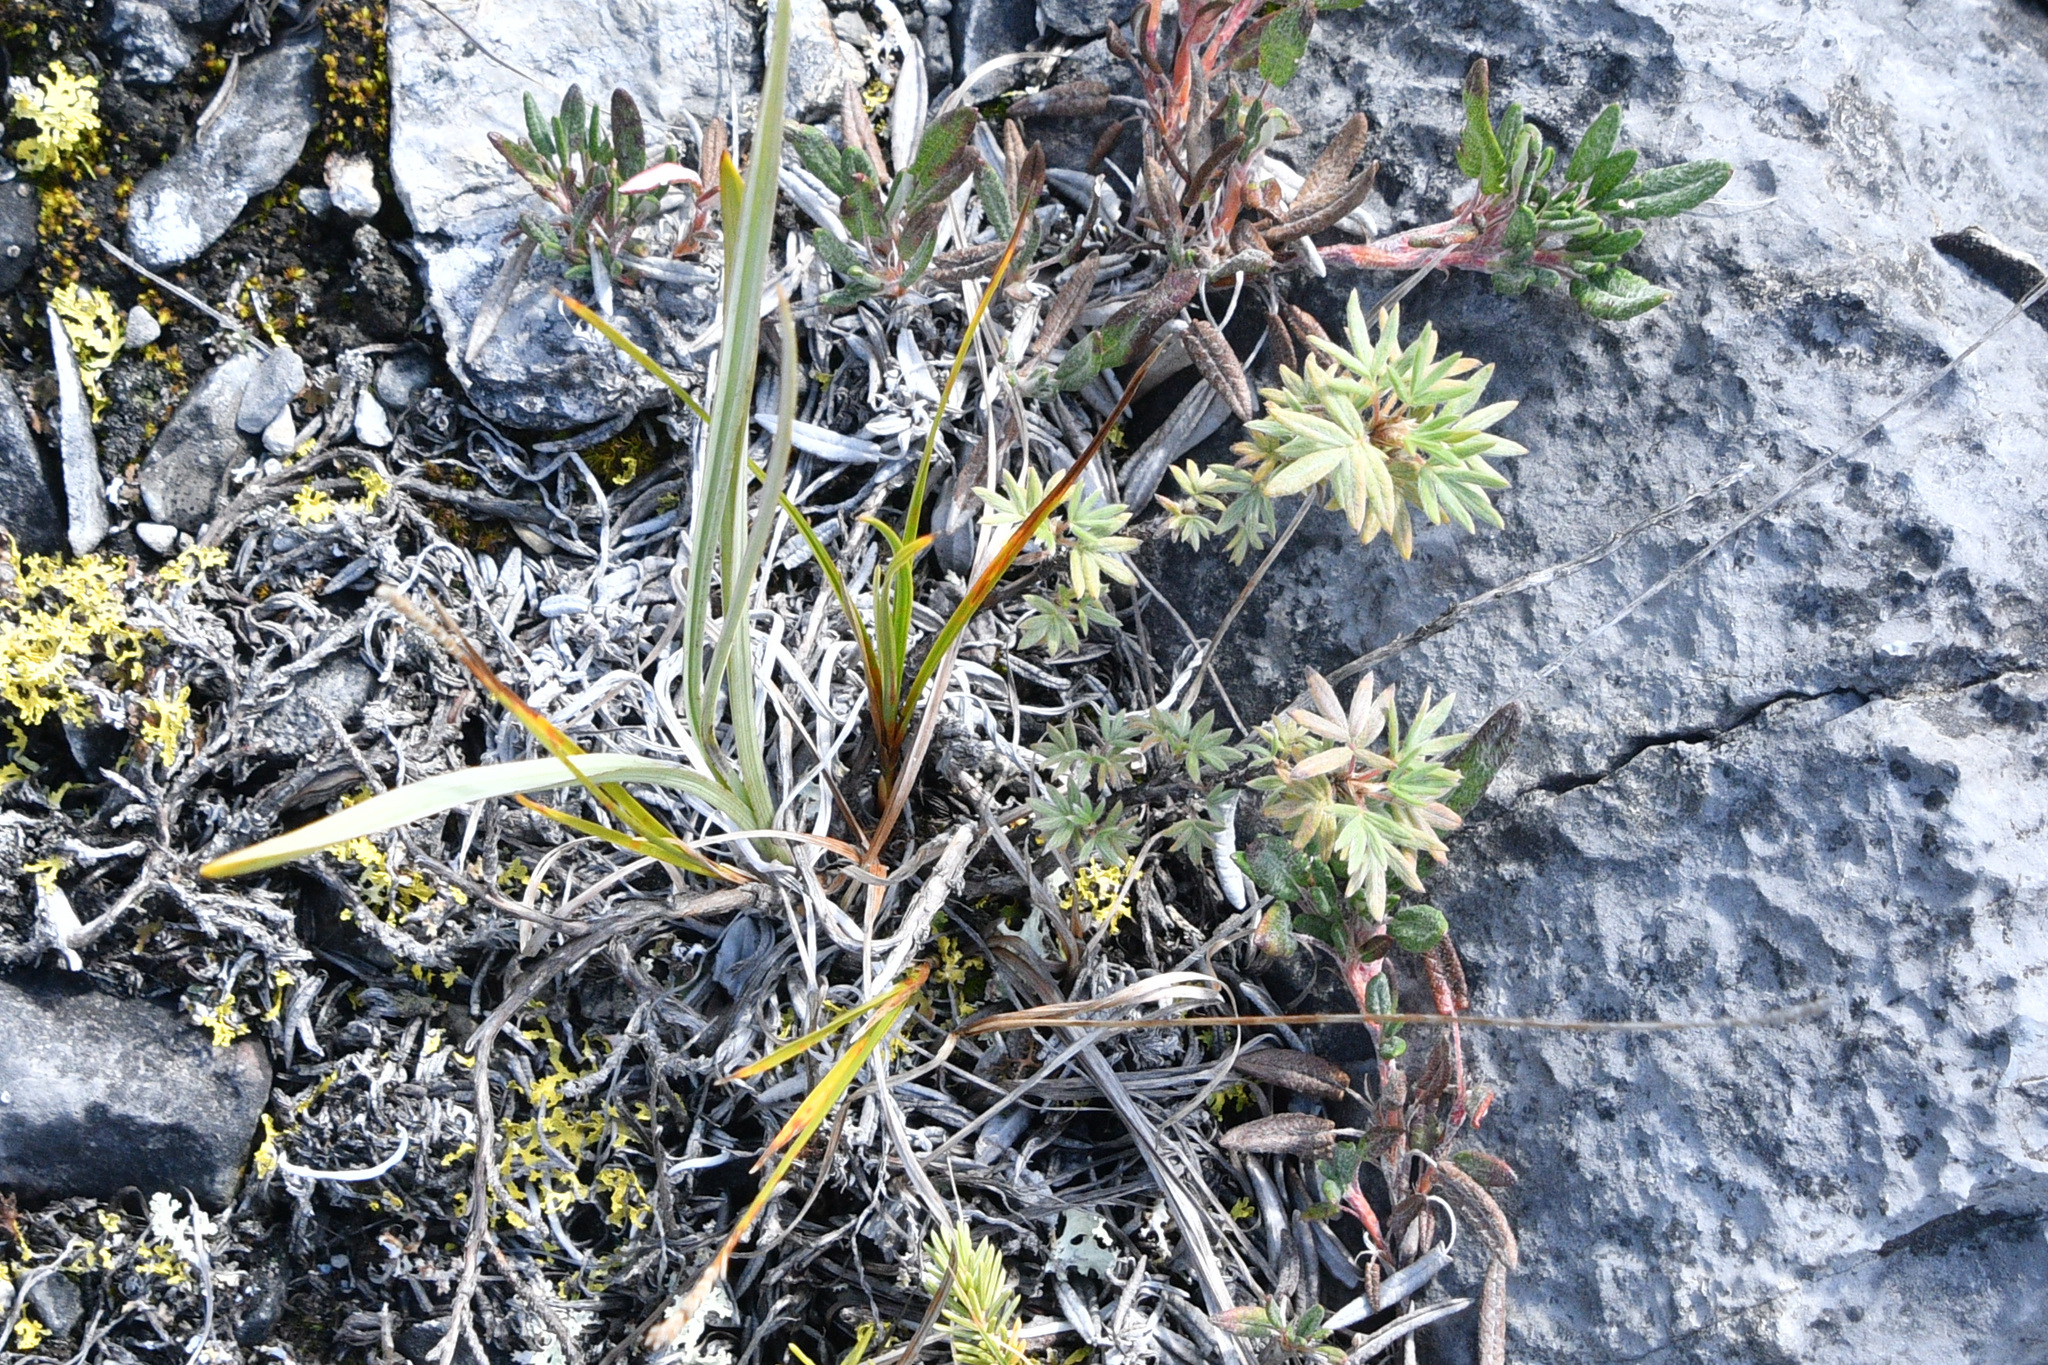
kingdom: Plantae
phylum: Tracheophyta
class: Magnoliopsida
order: Rosales
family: Rosaceae
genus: Dasiphora
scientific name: Dasiphora fruticosa
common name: Shrubby cinquefoil
